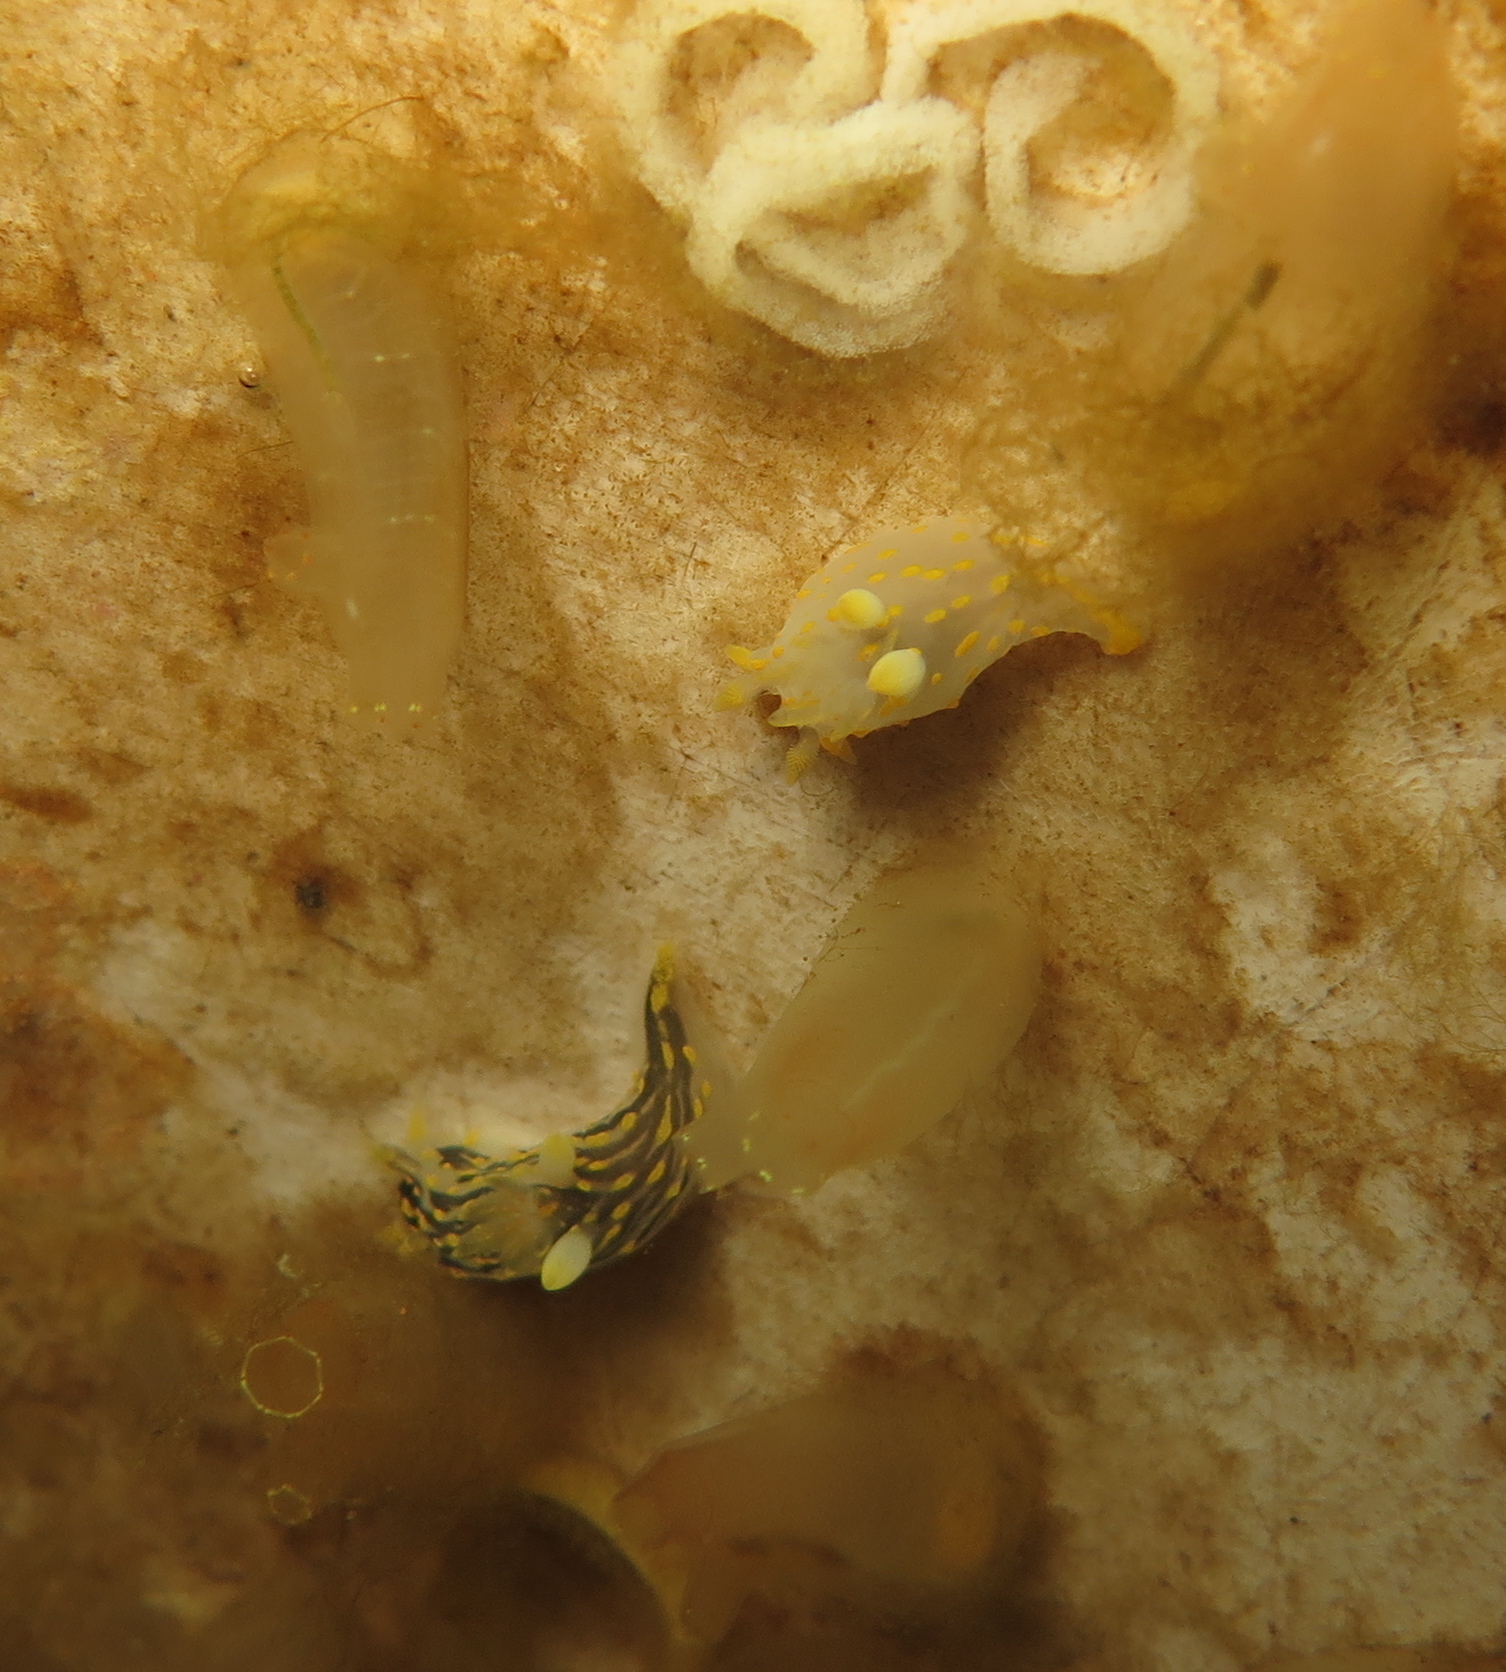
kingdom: Animalia
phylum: Mollusca
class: Gastropoda
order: Nudibranchia
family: Polyceridae
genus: Polycera
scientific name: Polycera quadrilineata
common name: Four-striped polycera
